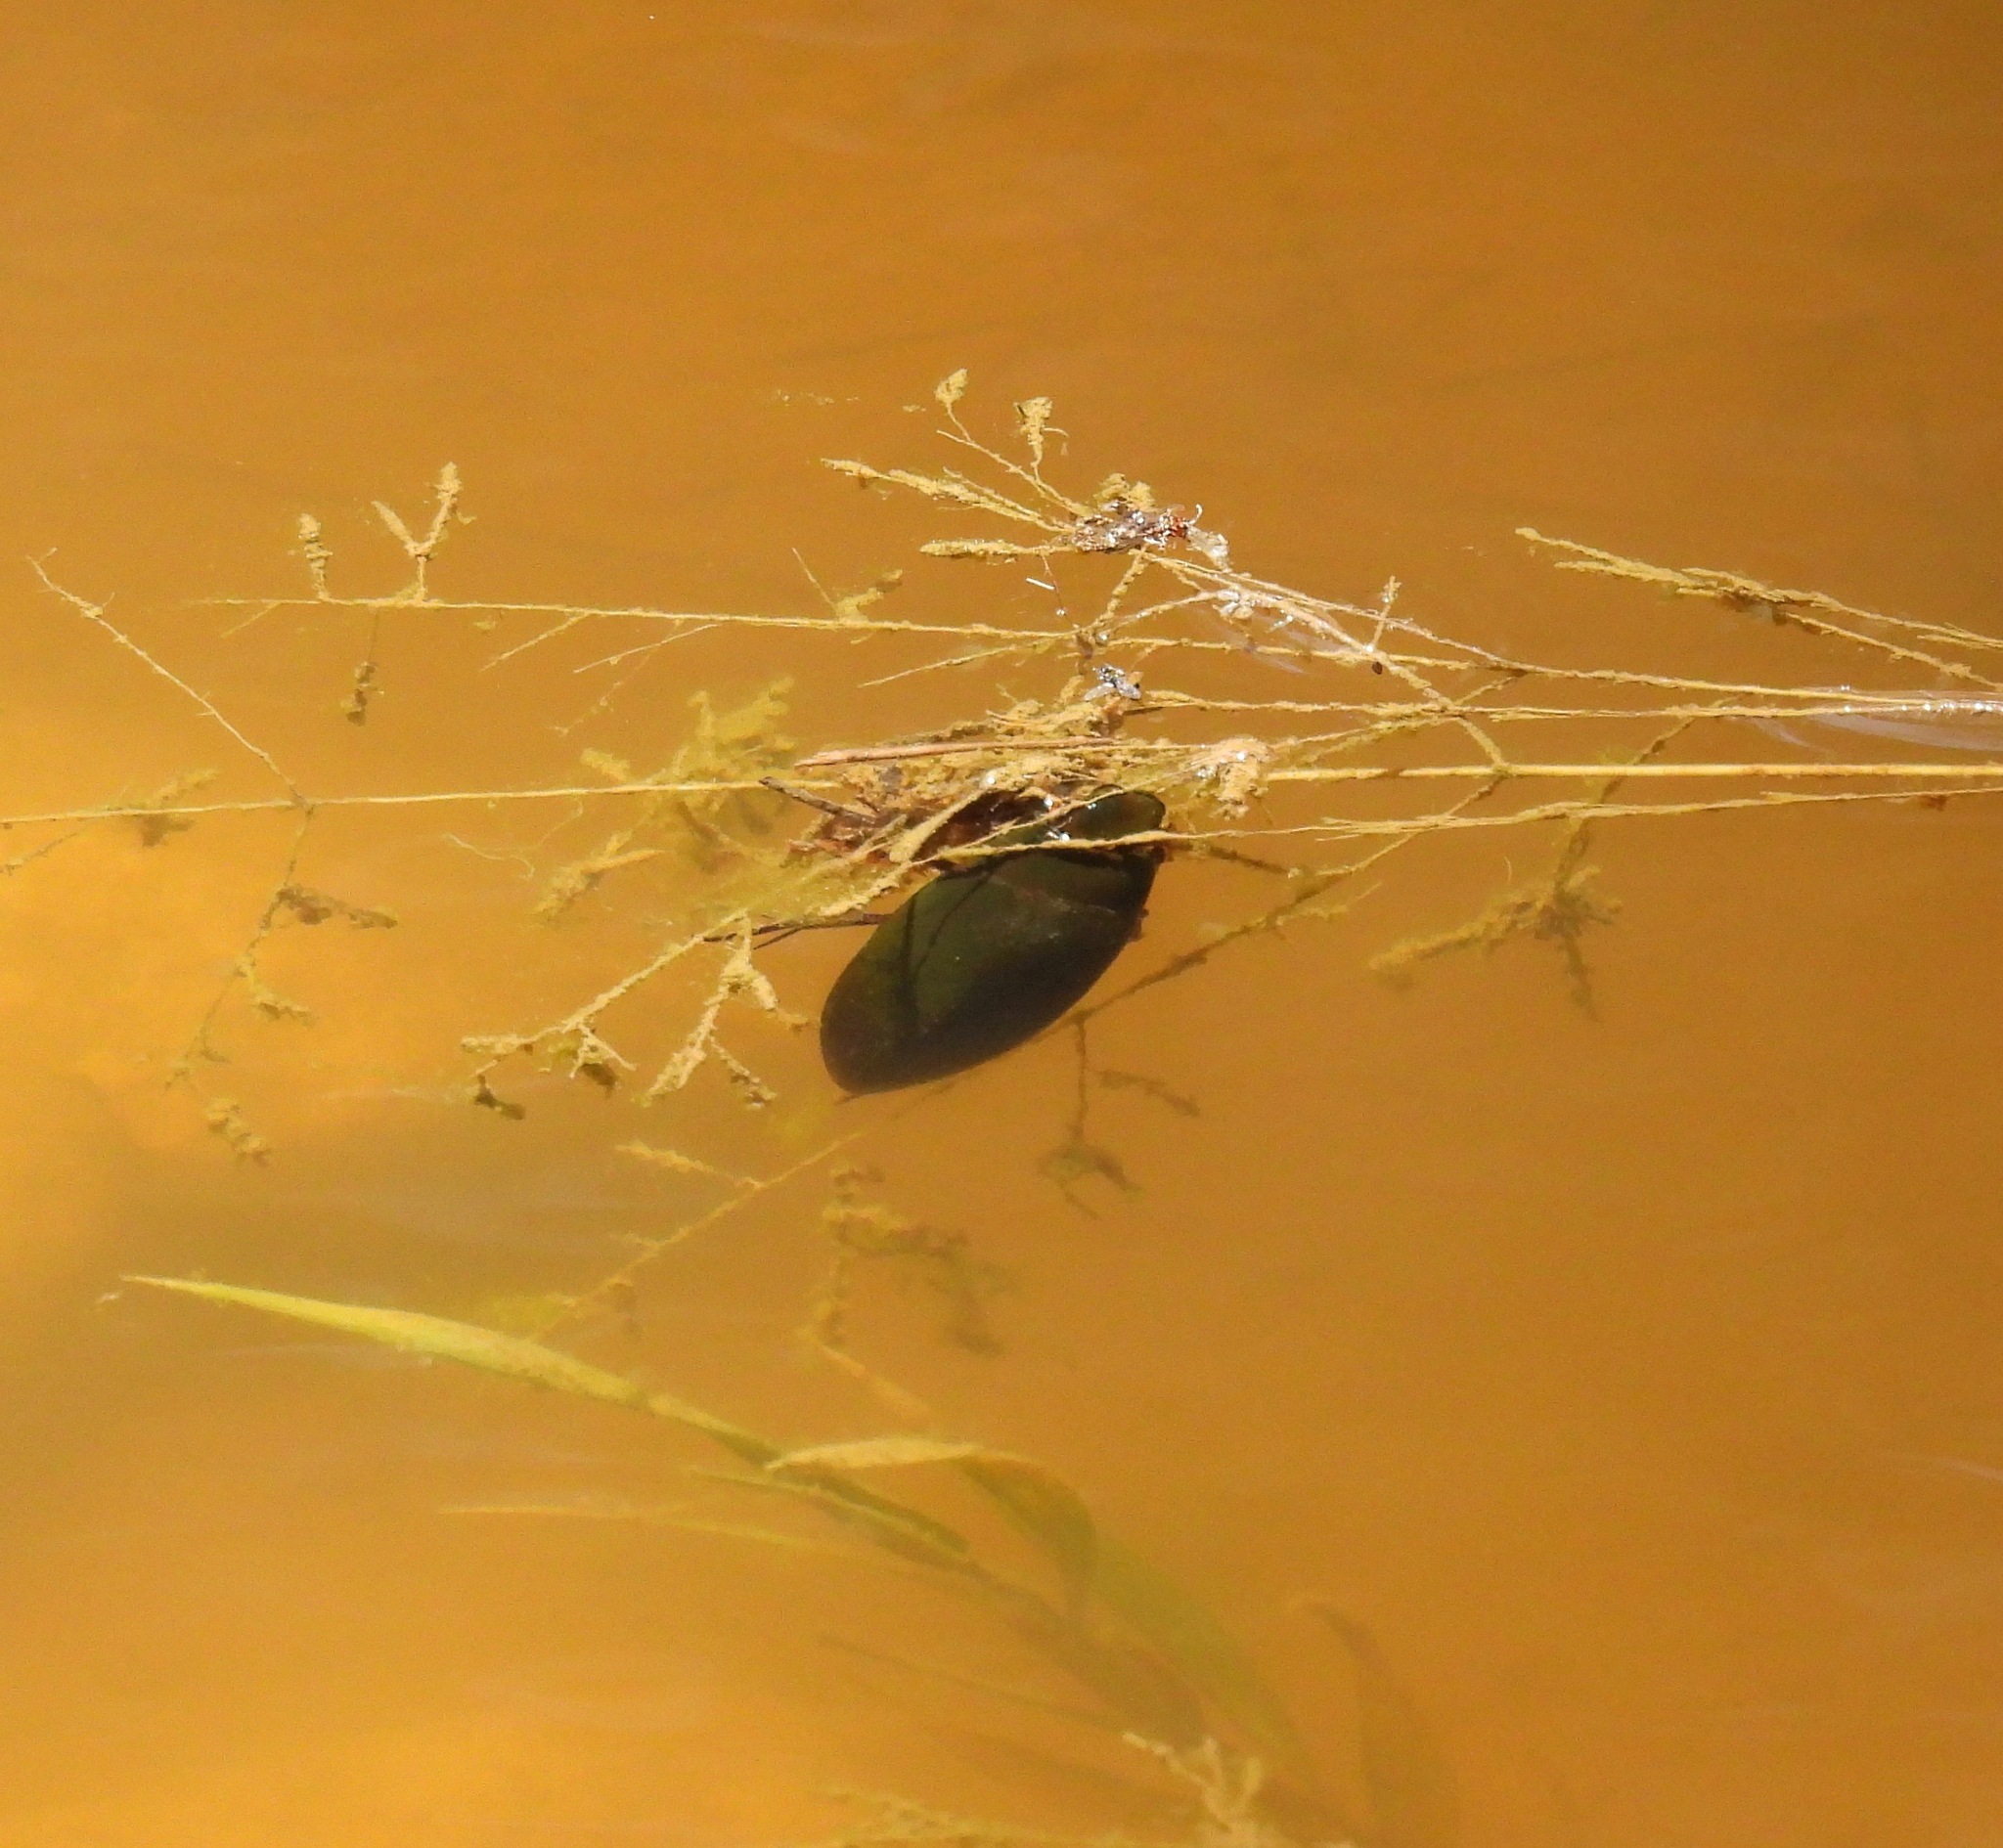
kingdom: Animalia
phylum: Arthropoda
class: Insecta
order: Coleoptera
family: Hydrophilidae
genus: Hydrophilus
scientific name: Hydrophilus triangularis
